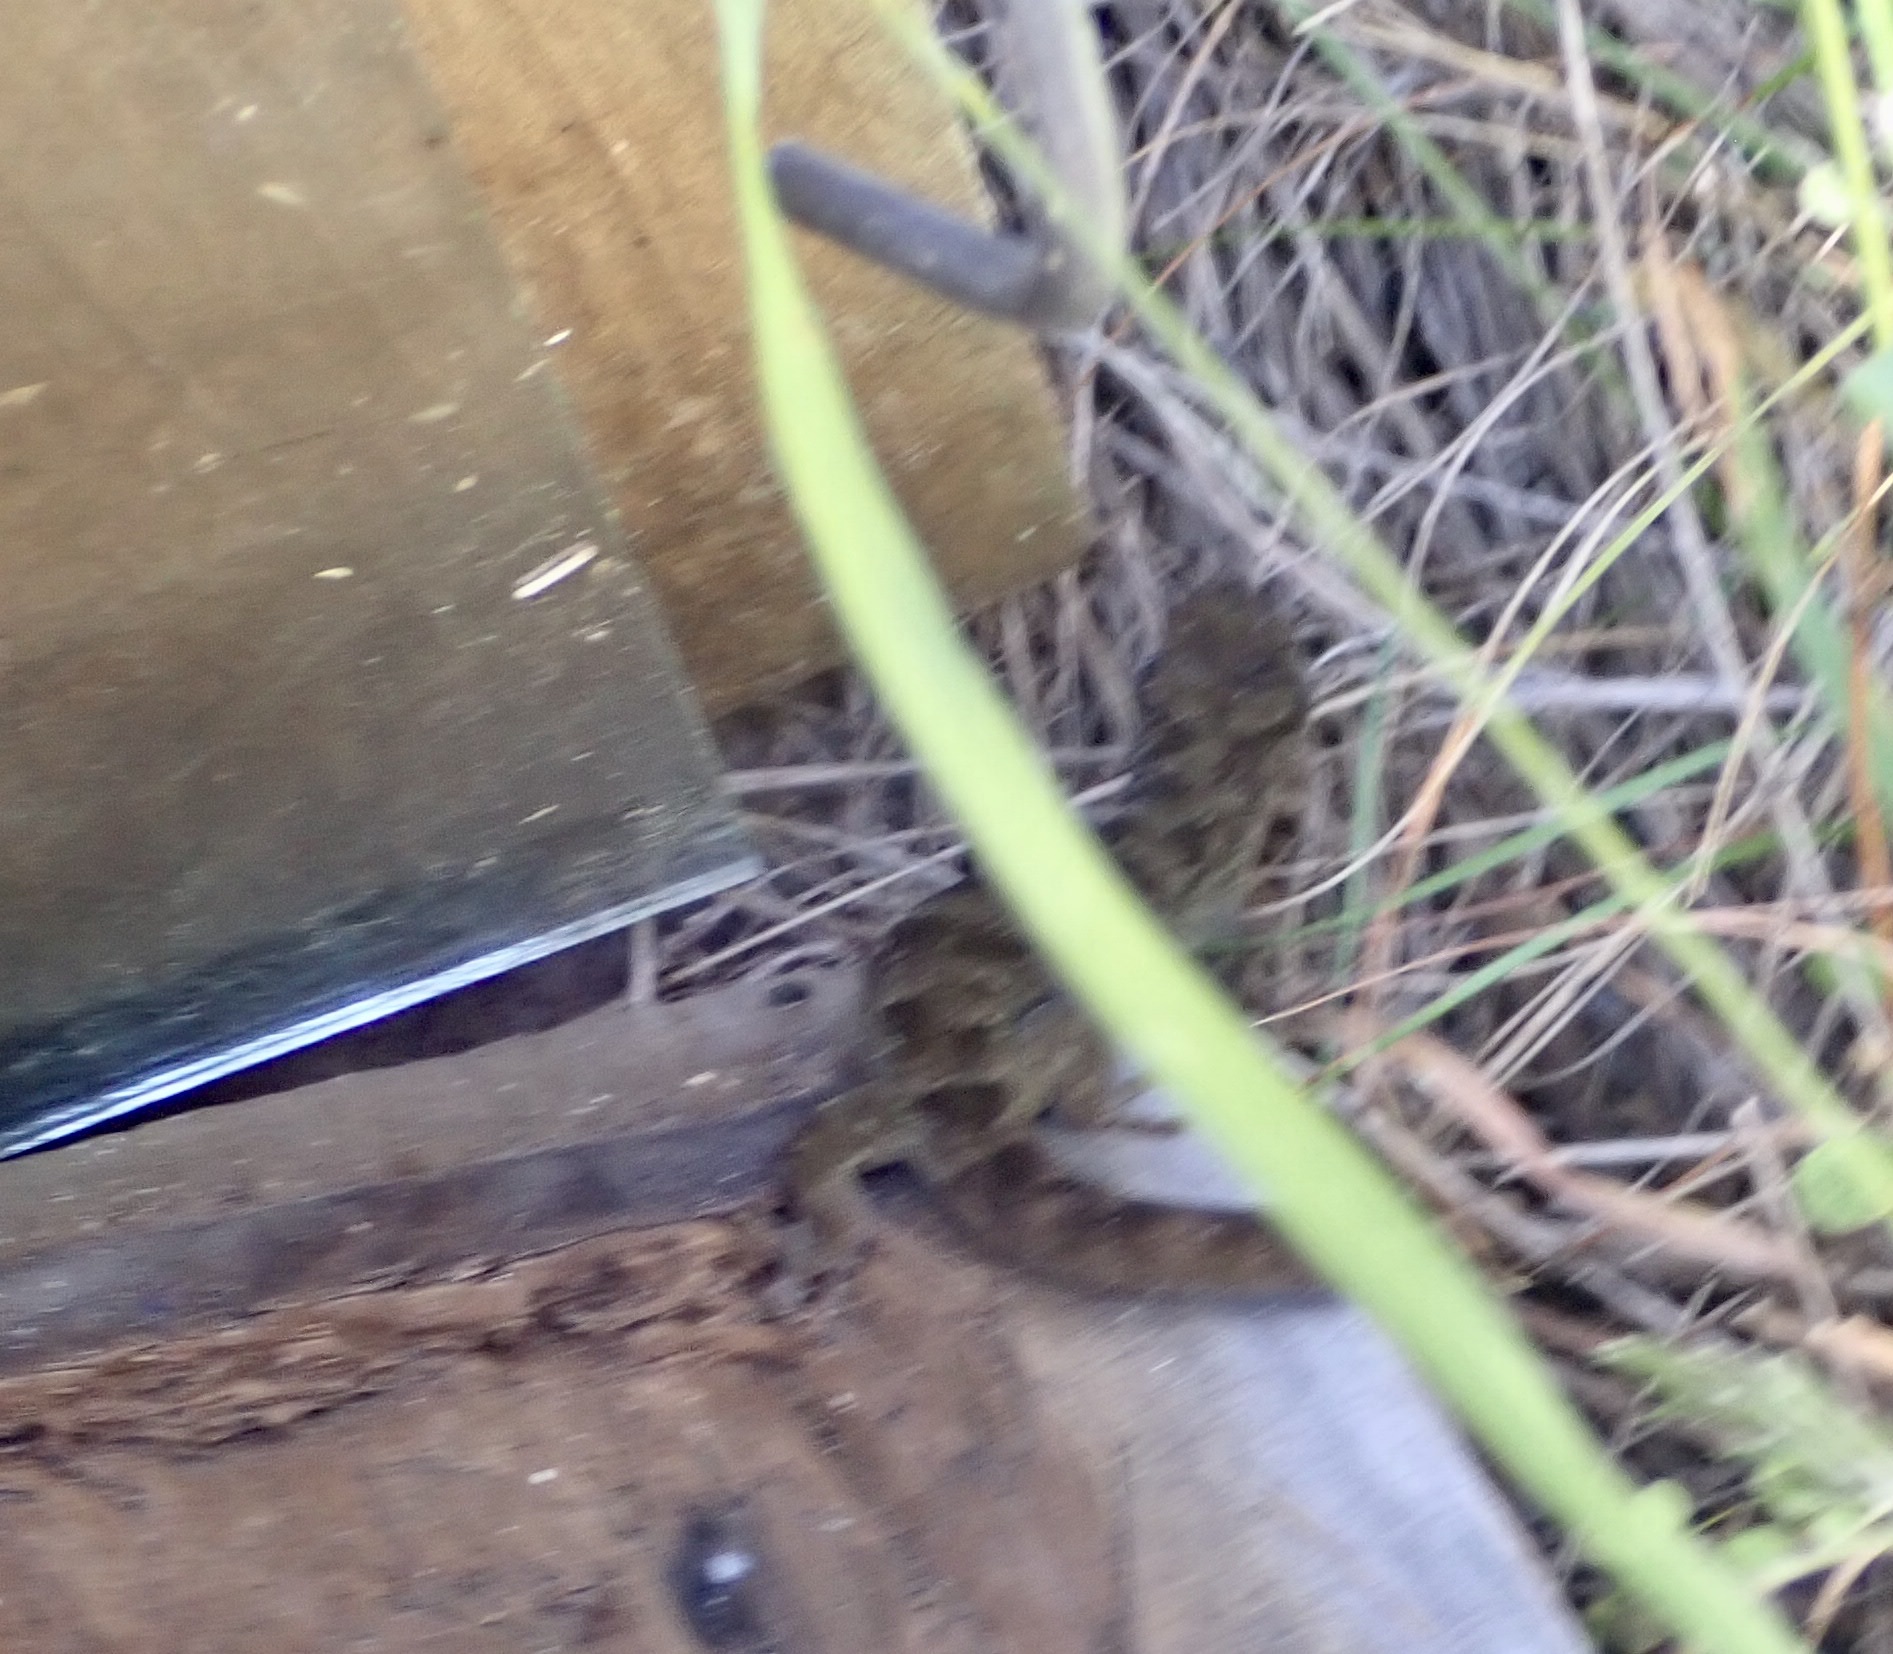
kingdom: Animalia
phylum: Chordata
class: Squamata
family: Diplodactylidae
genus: Woodworthia
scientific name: Woodworthia brunnea
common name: Canterbury gecko
